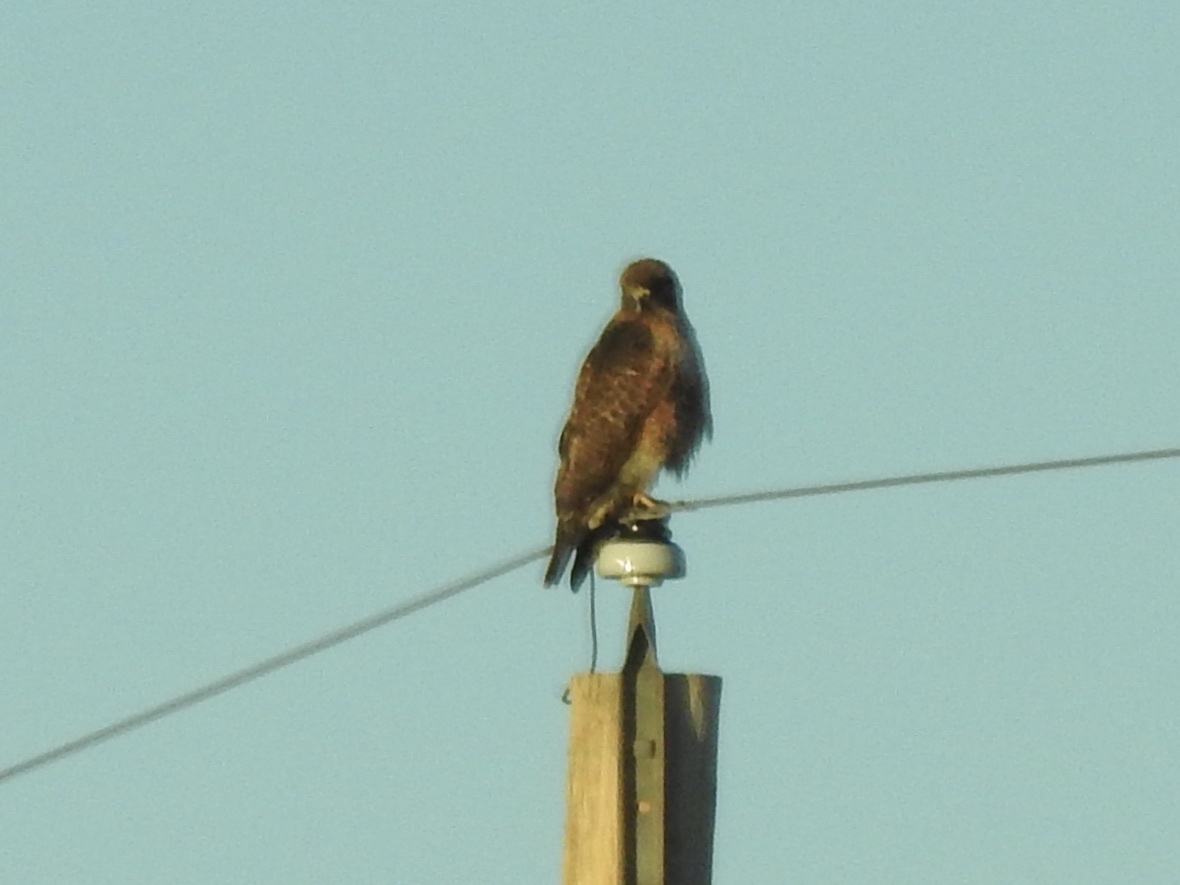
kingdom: Animalia
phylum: Chordata
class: Aves
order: Accipitriformes
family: Accipitridae
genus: Buteo
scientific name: Buteo jamaicensis
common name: Red-tailed hawk
